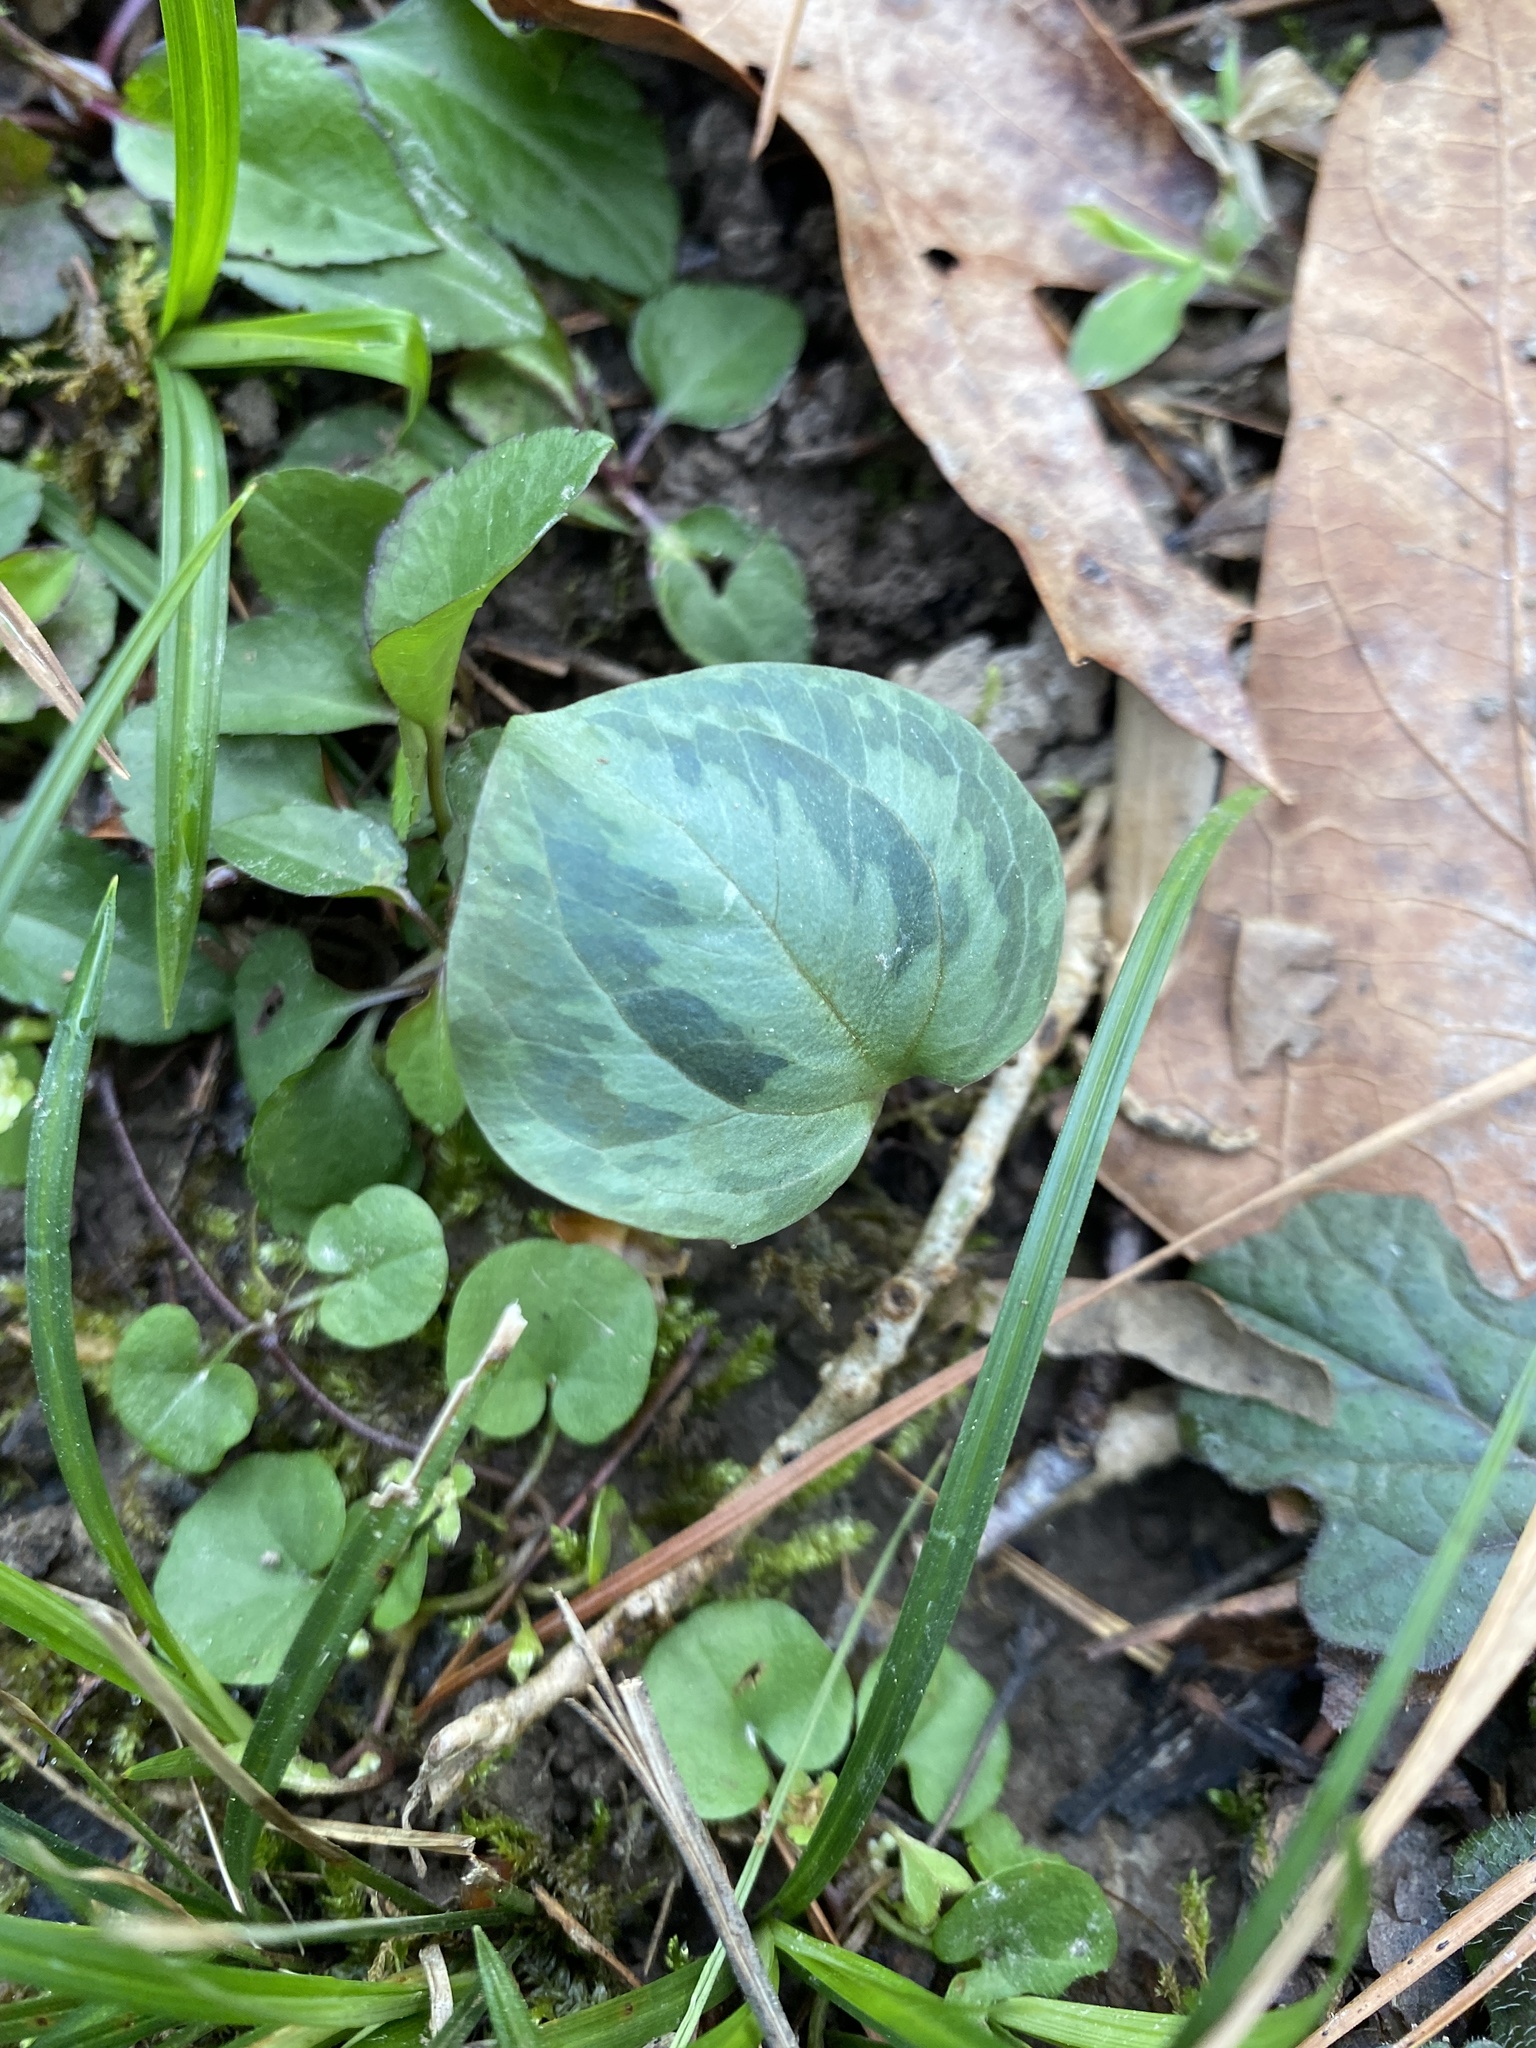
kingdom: Plantae
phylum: Tracheophyta
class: Liliopsida
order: Liliales
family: Melanthiaceae
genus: Trillium
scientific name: Trillium foetidissimum
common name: Mississippi river trillium
